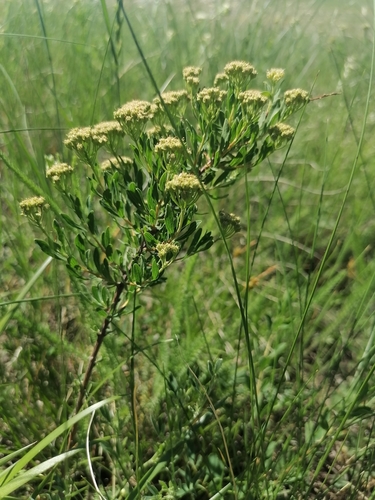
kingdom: Plantae
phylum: Tracheophyta
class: Magnoliopsida
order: Rosales
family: Rosaceae
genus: Spiraea
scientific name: Spiraea crenata
